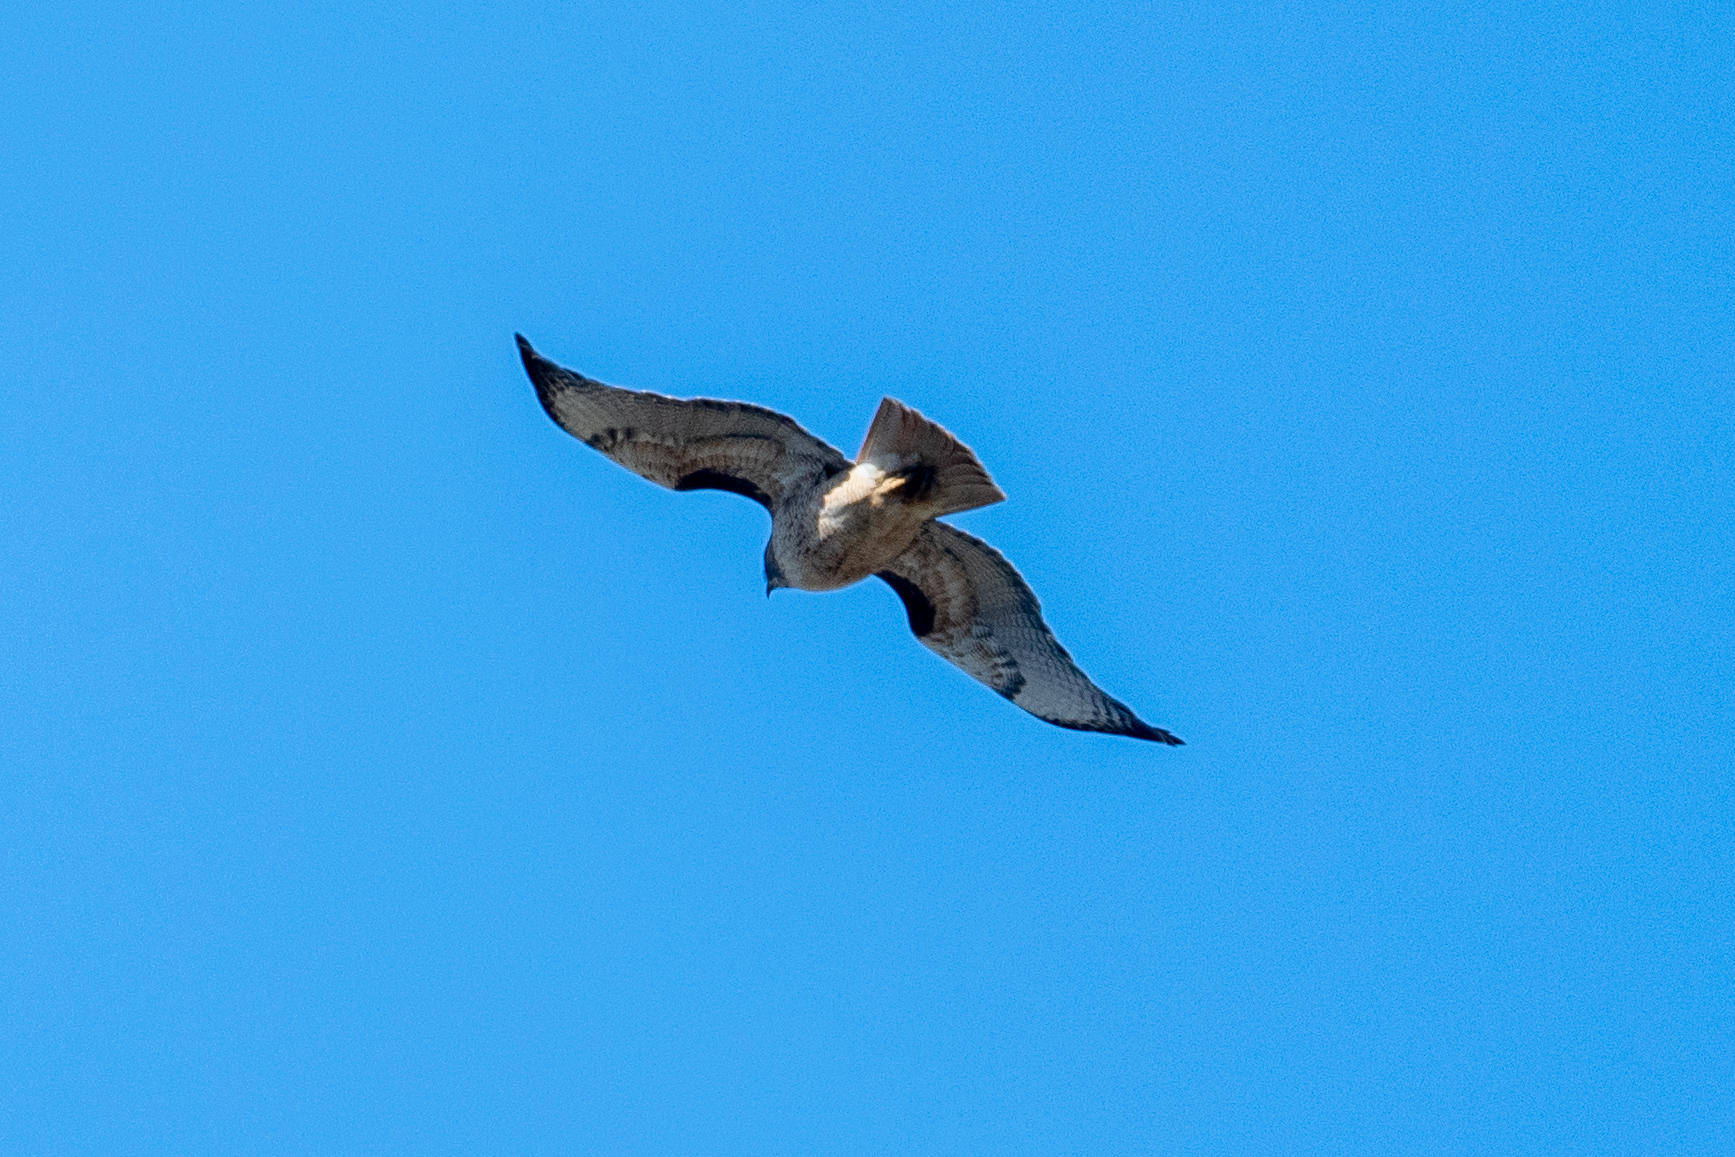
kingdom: Animalia
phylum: Chordata
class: Aves
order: Accipitriformes
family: Accipitridae
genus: Buteo
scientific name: Buteo jamaicensis
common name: Red-tailed hawk
